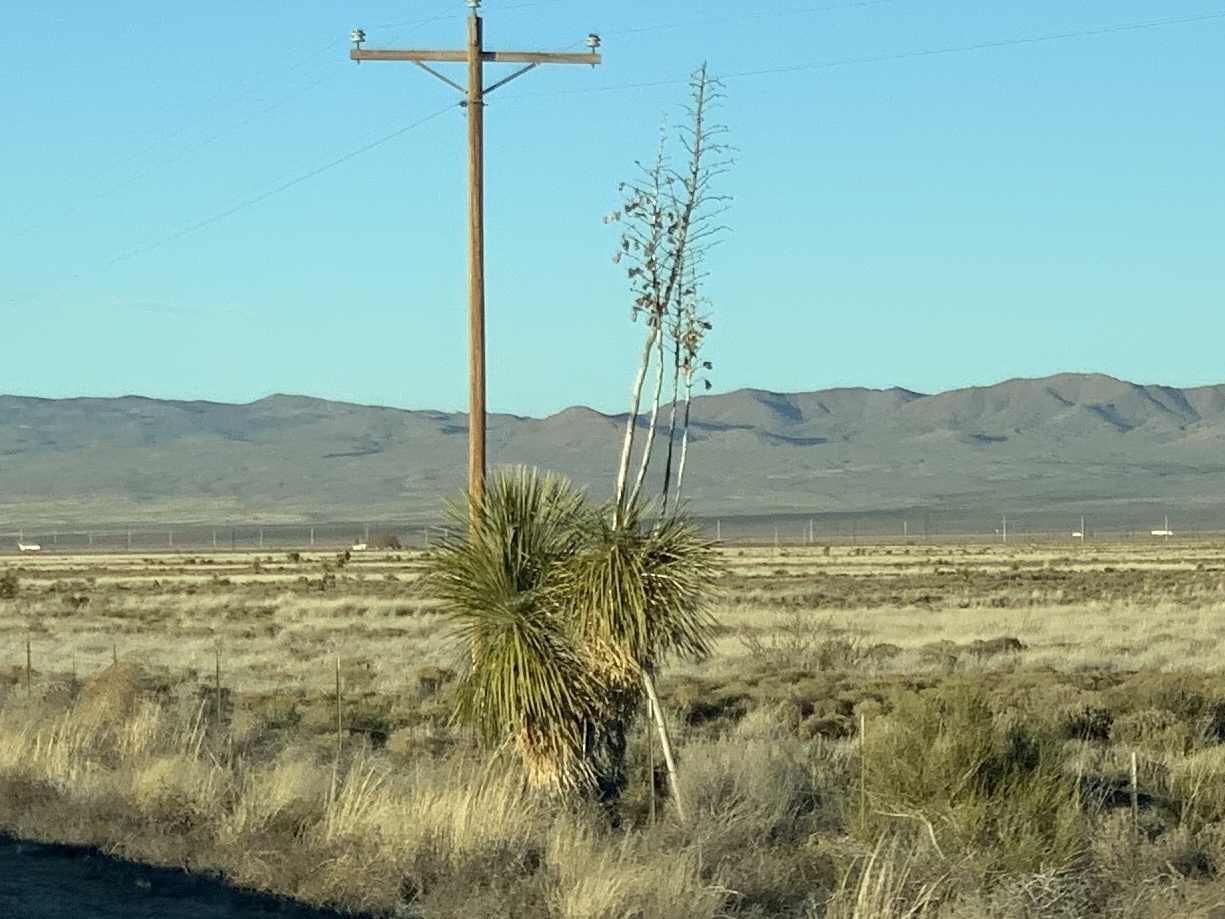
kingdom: Plantae
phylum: Tracheophyta
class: Liliopsida
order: Asparagales
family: Asparagaceae
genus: Yucca
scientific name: Yucca elata
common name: Palmella
